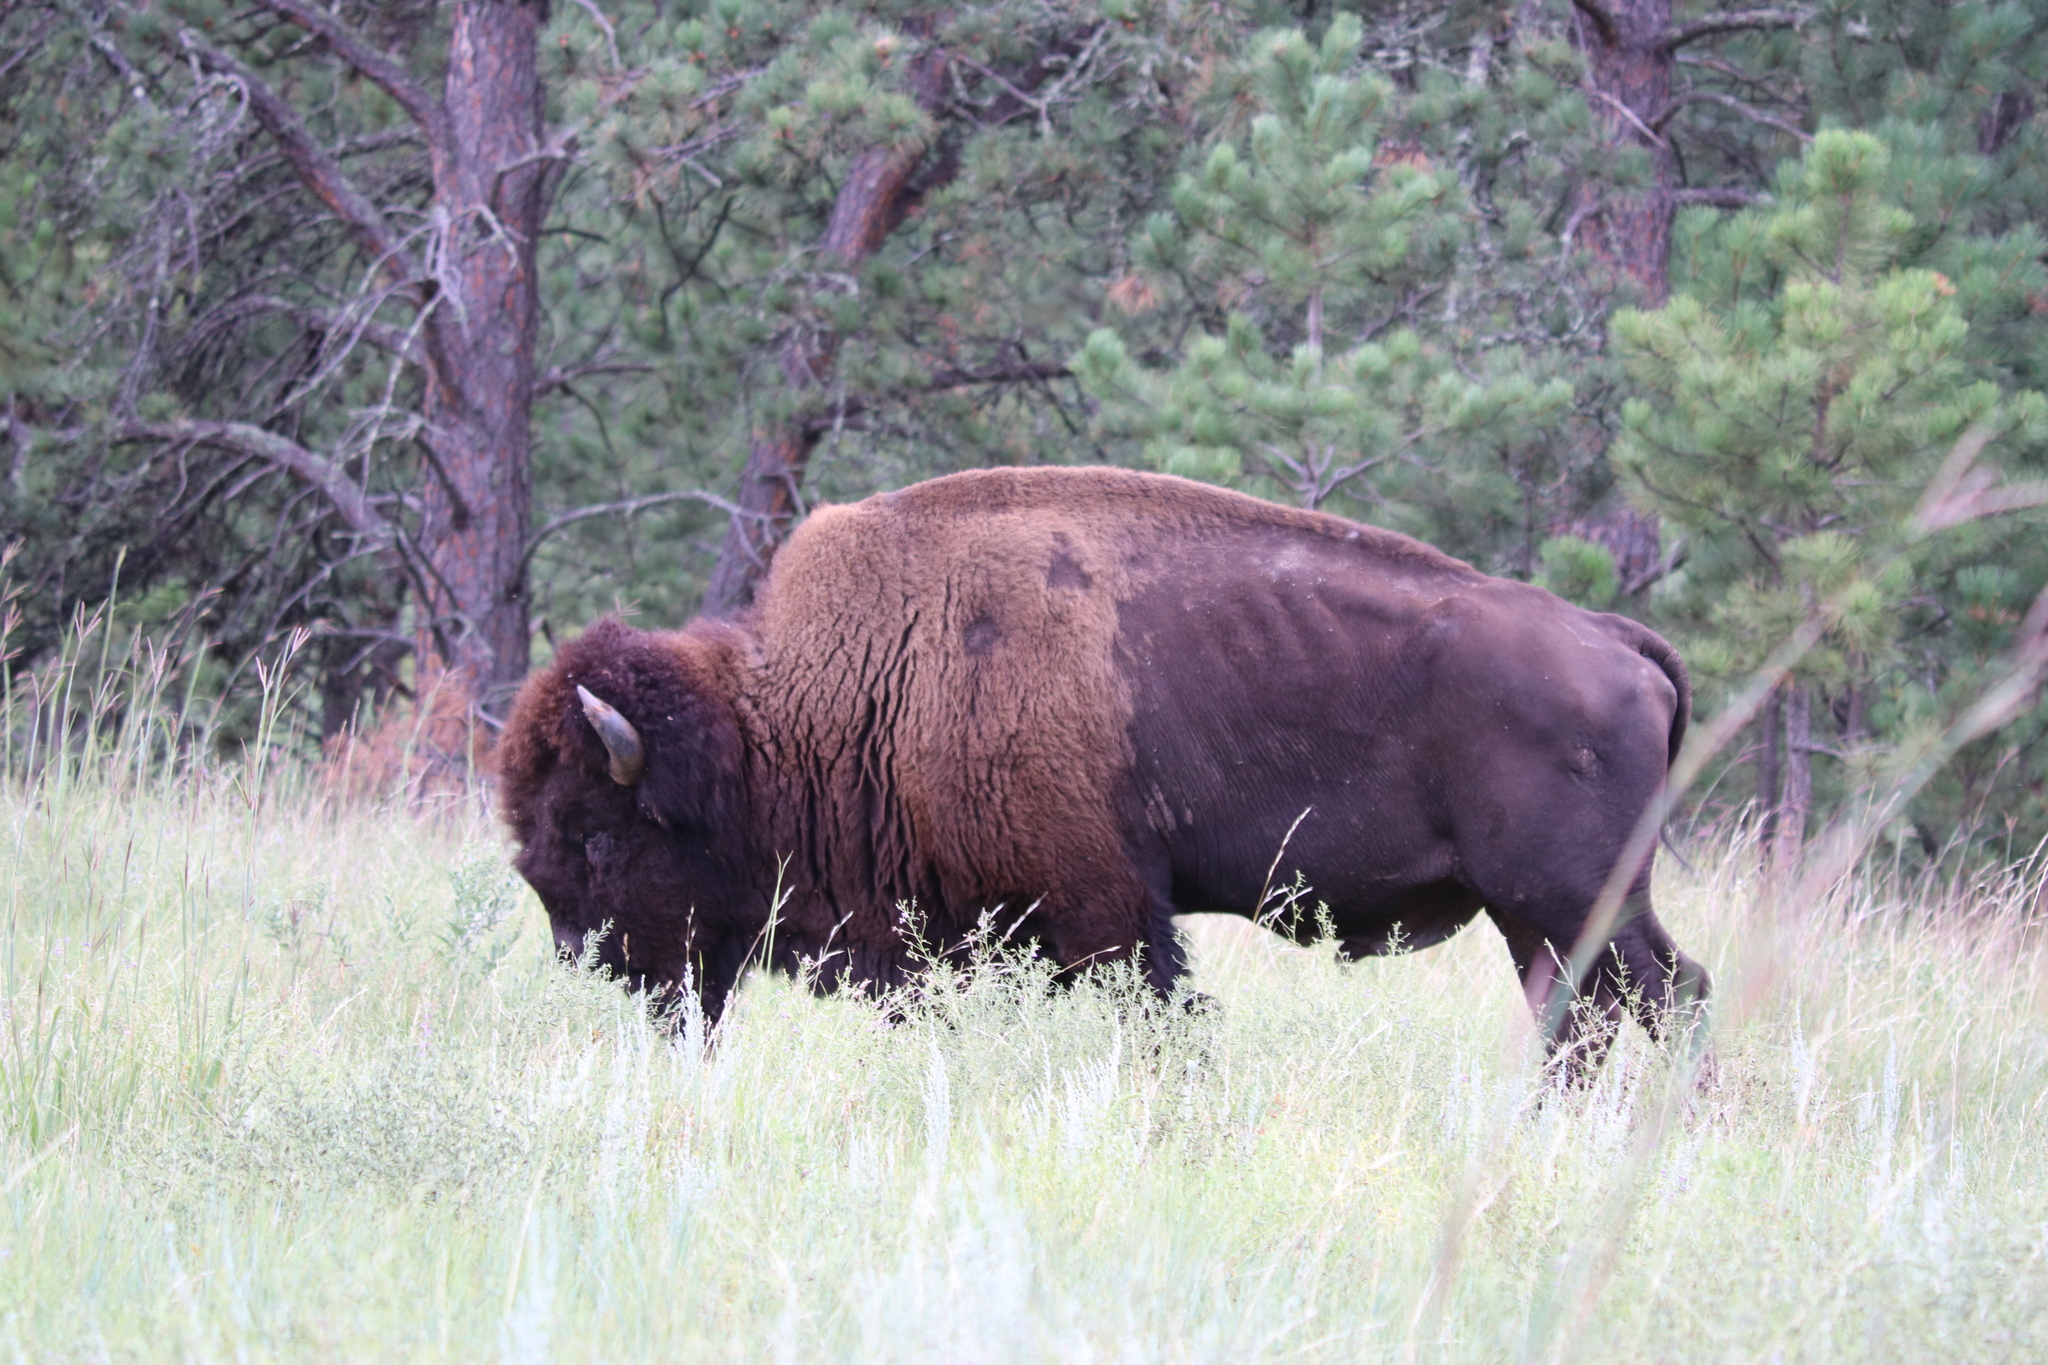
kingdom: Animalia
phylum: Chordata
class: Mammalia
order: Artiodactyla
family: Bovidae
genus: Bison
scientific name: Bison bison
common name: American bison
